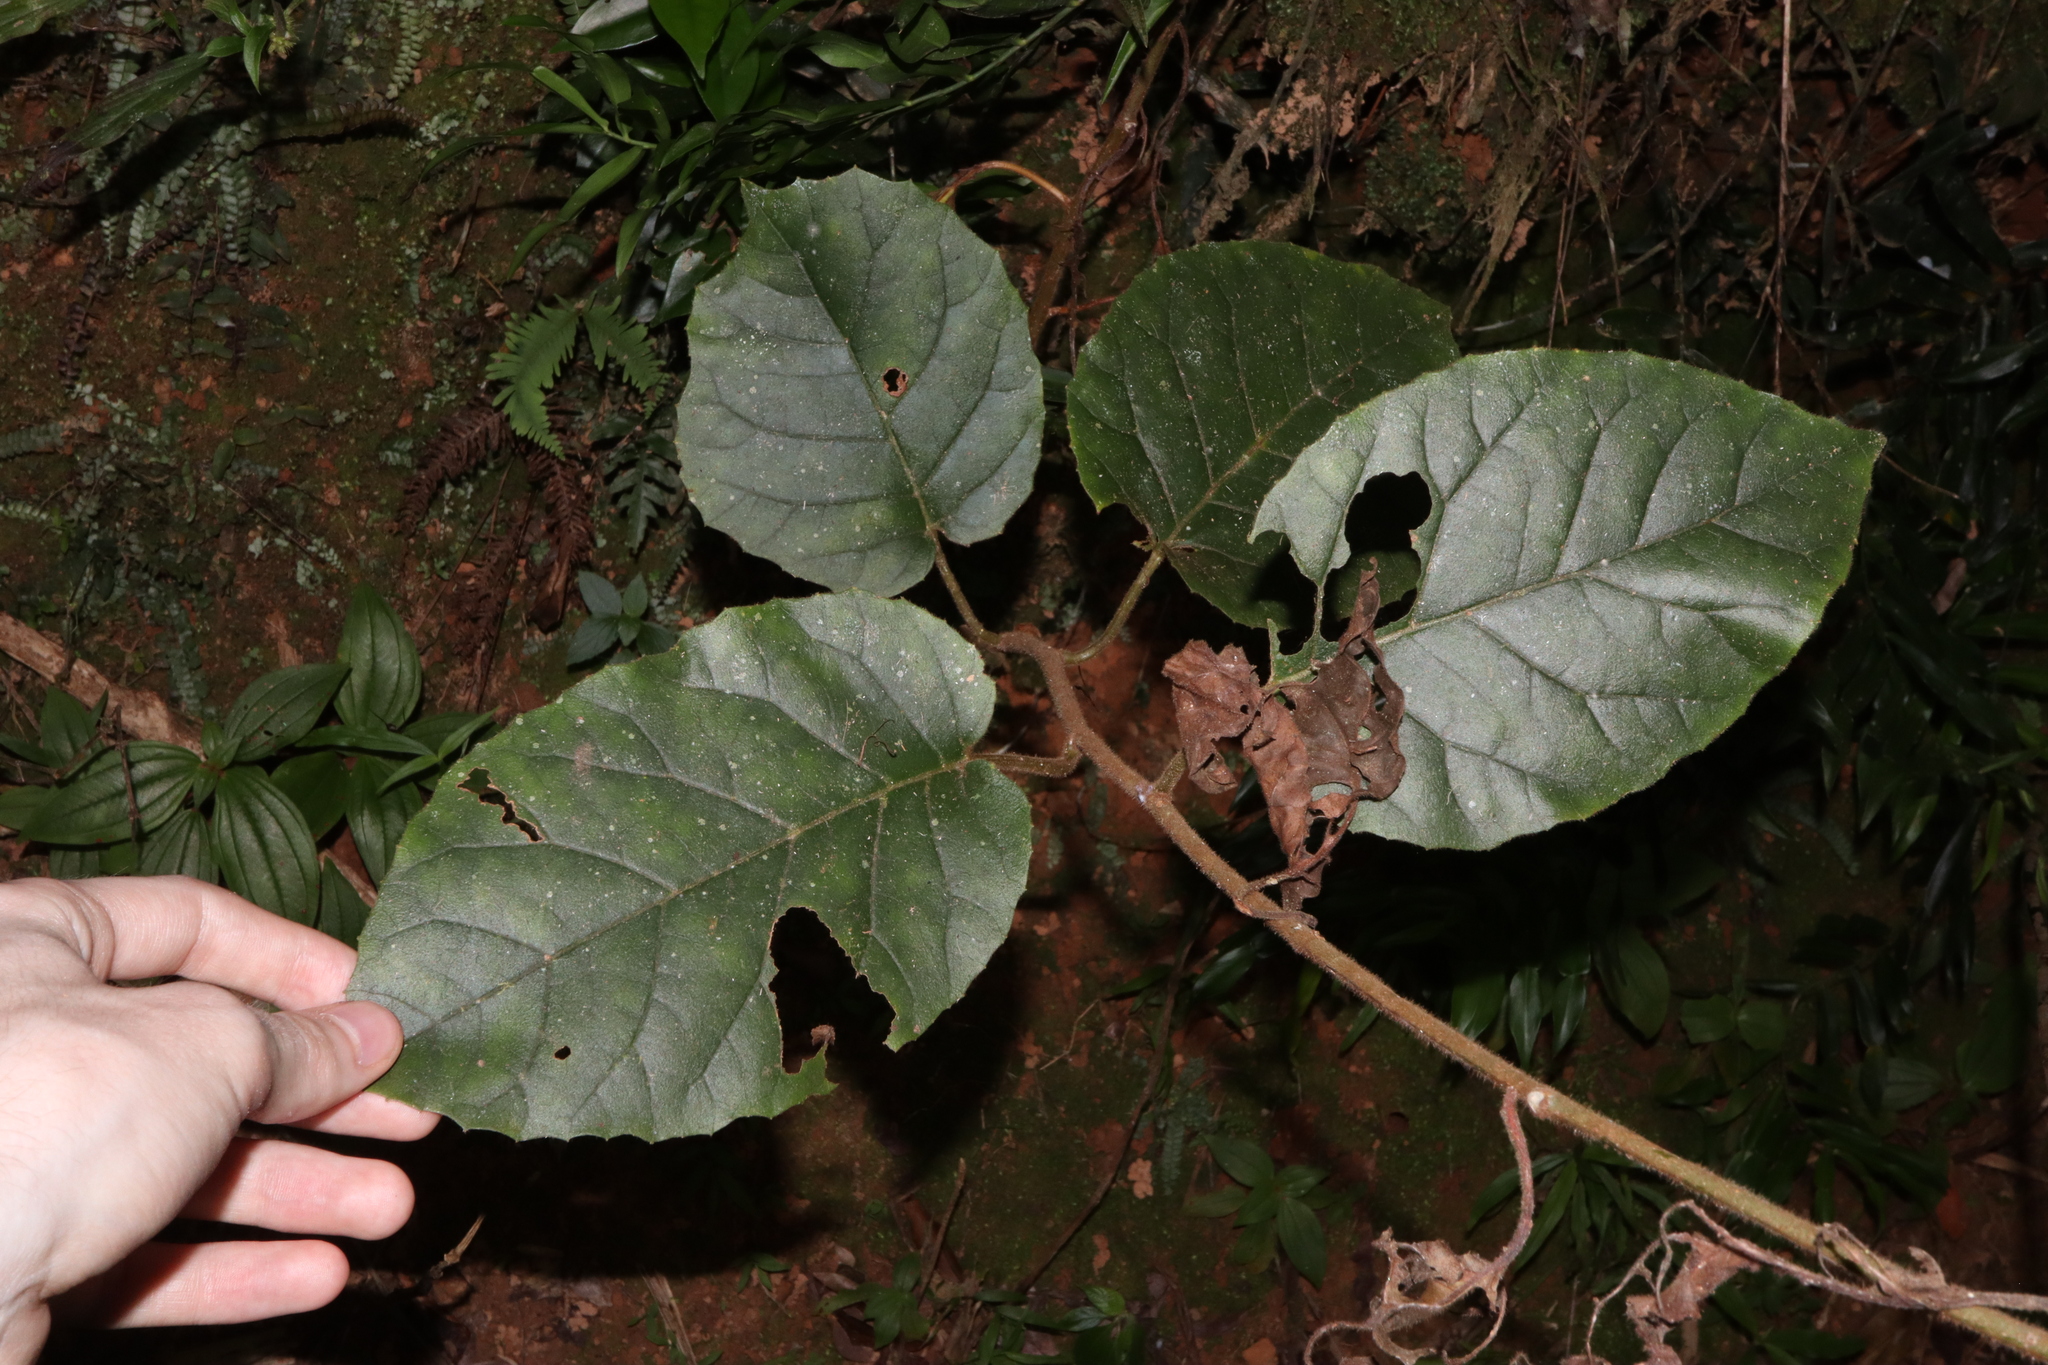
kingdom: Plantae
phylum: Tracheophyta
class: Magnoliopsida
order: Ericales
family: Primulaceae
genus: Maesa
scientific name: Maesa dependens
